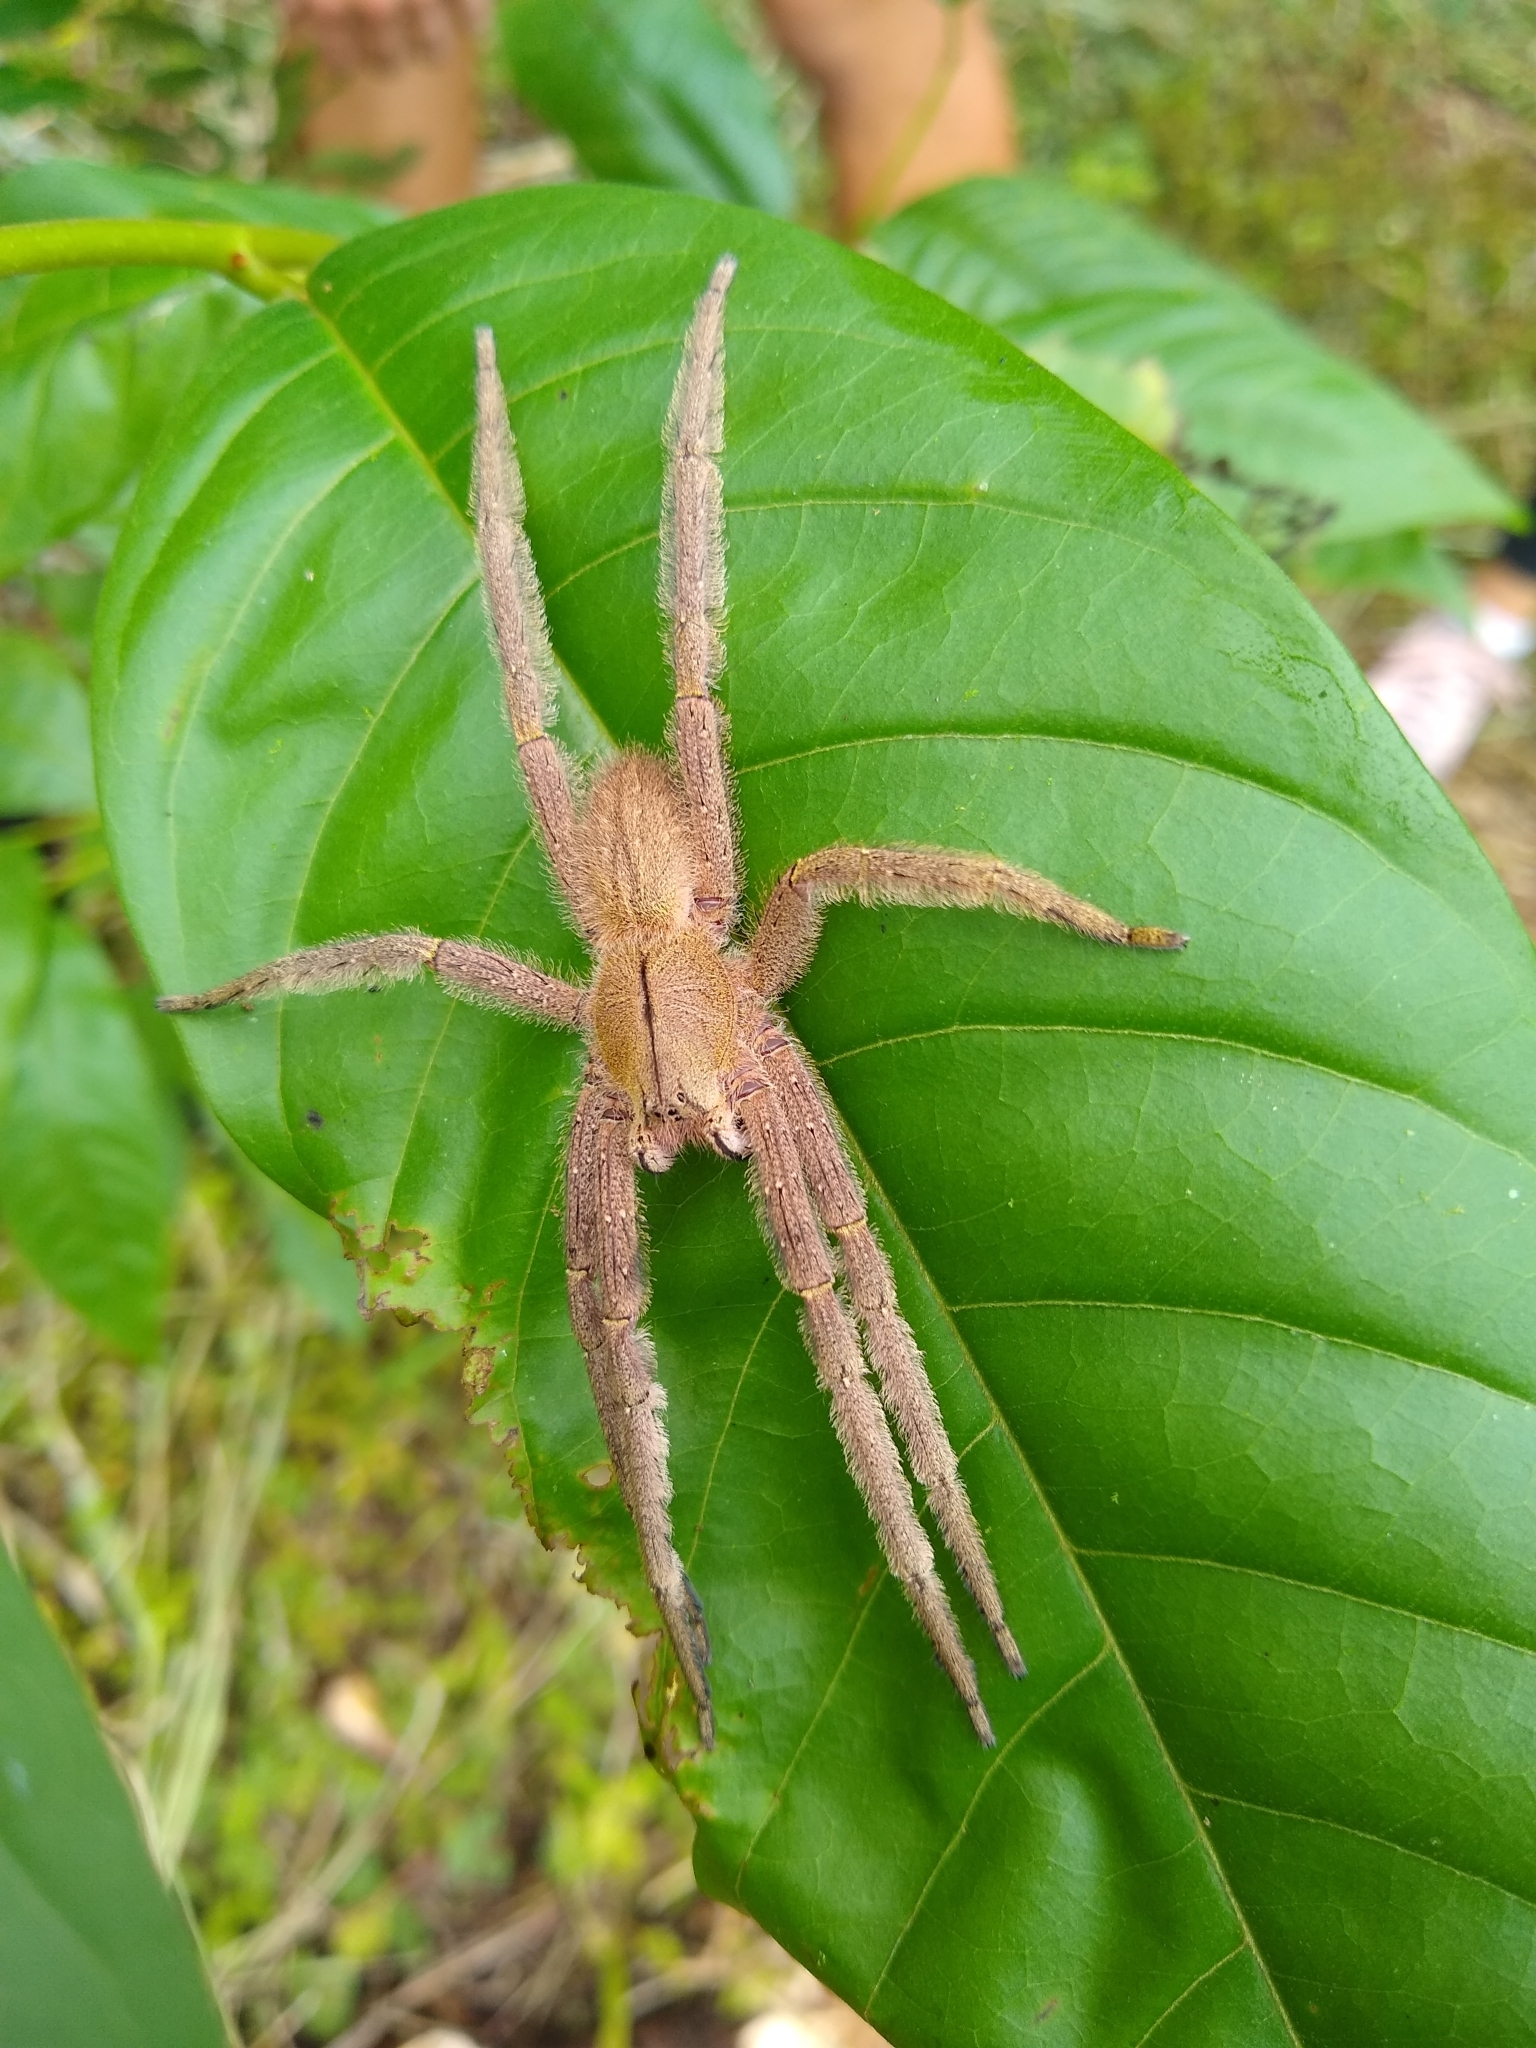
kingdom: Animalia
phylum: Arthropoda
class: Arachnida
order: Araneae
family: Ctenidae
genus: Phoneutria
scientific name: Phoneutria depilata
